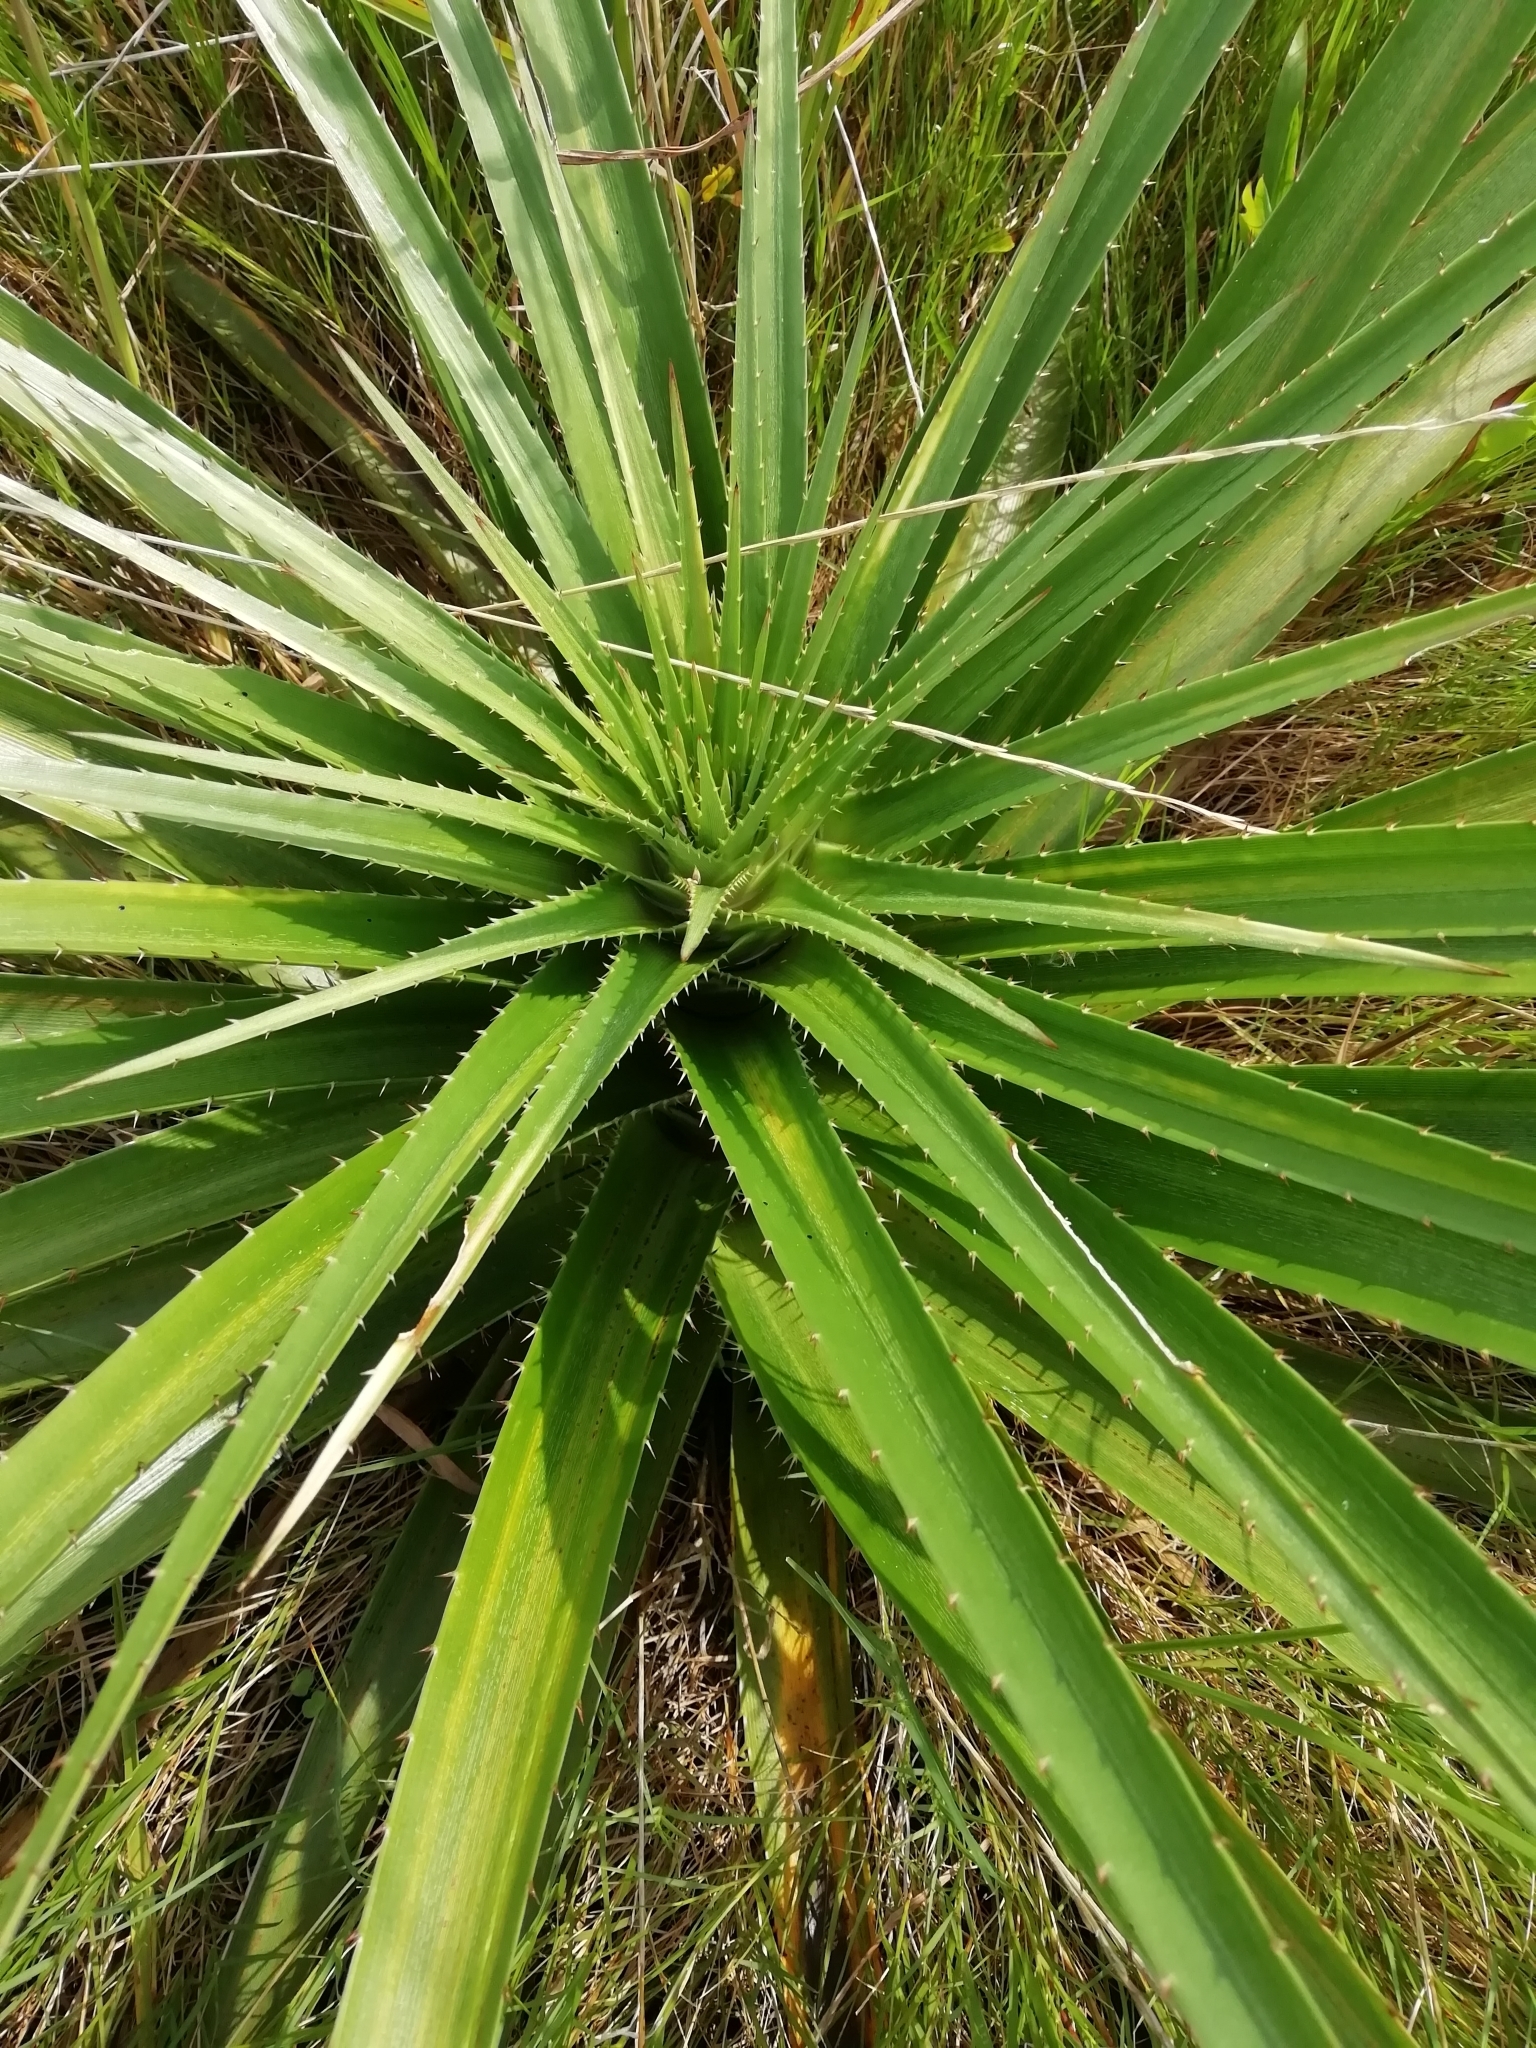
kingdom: Plantae
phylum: Tracheophyta
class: Magnoliopsida
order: Apiales
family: Apiaceae
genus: Eryngium
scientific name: Eryngium eburneum
